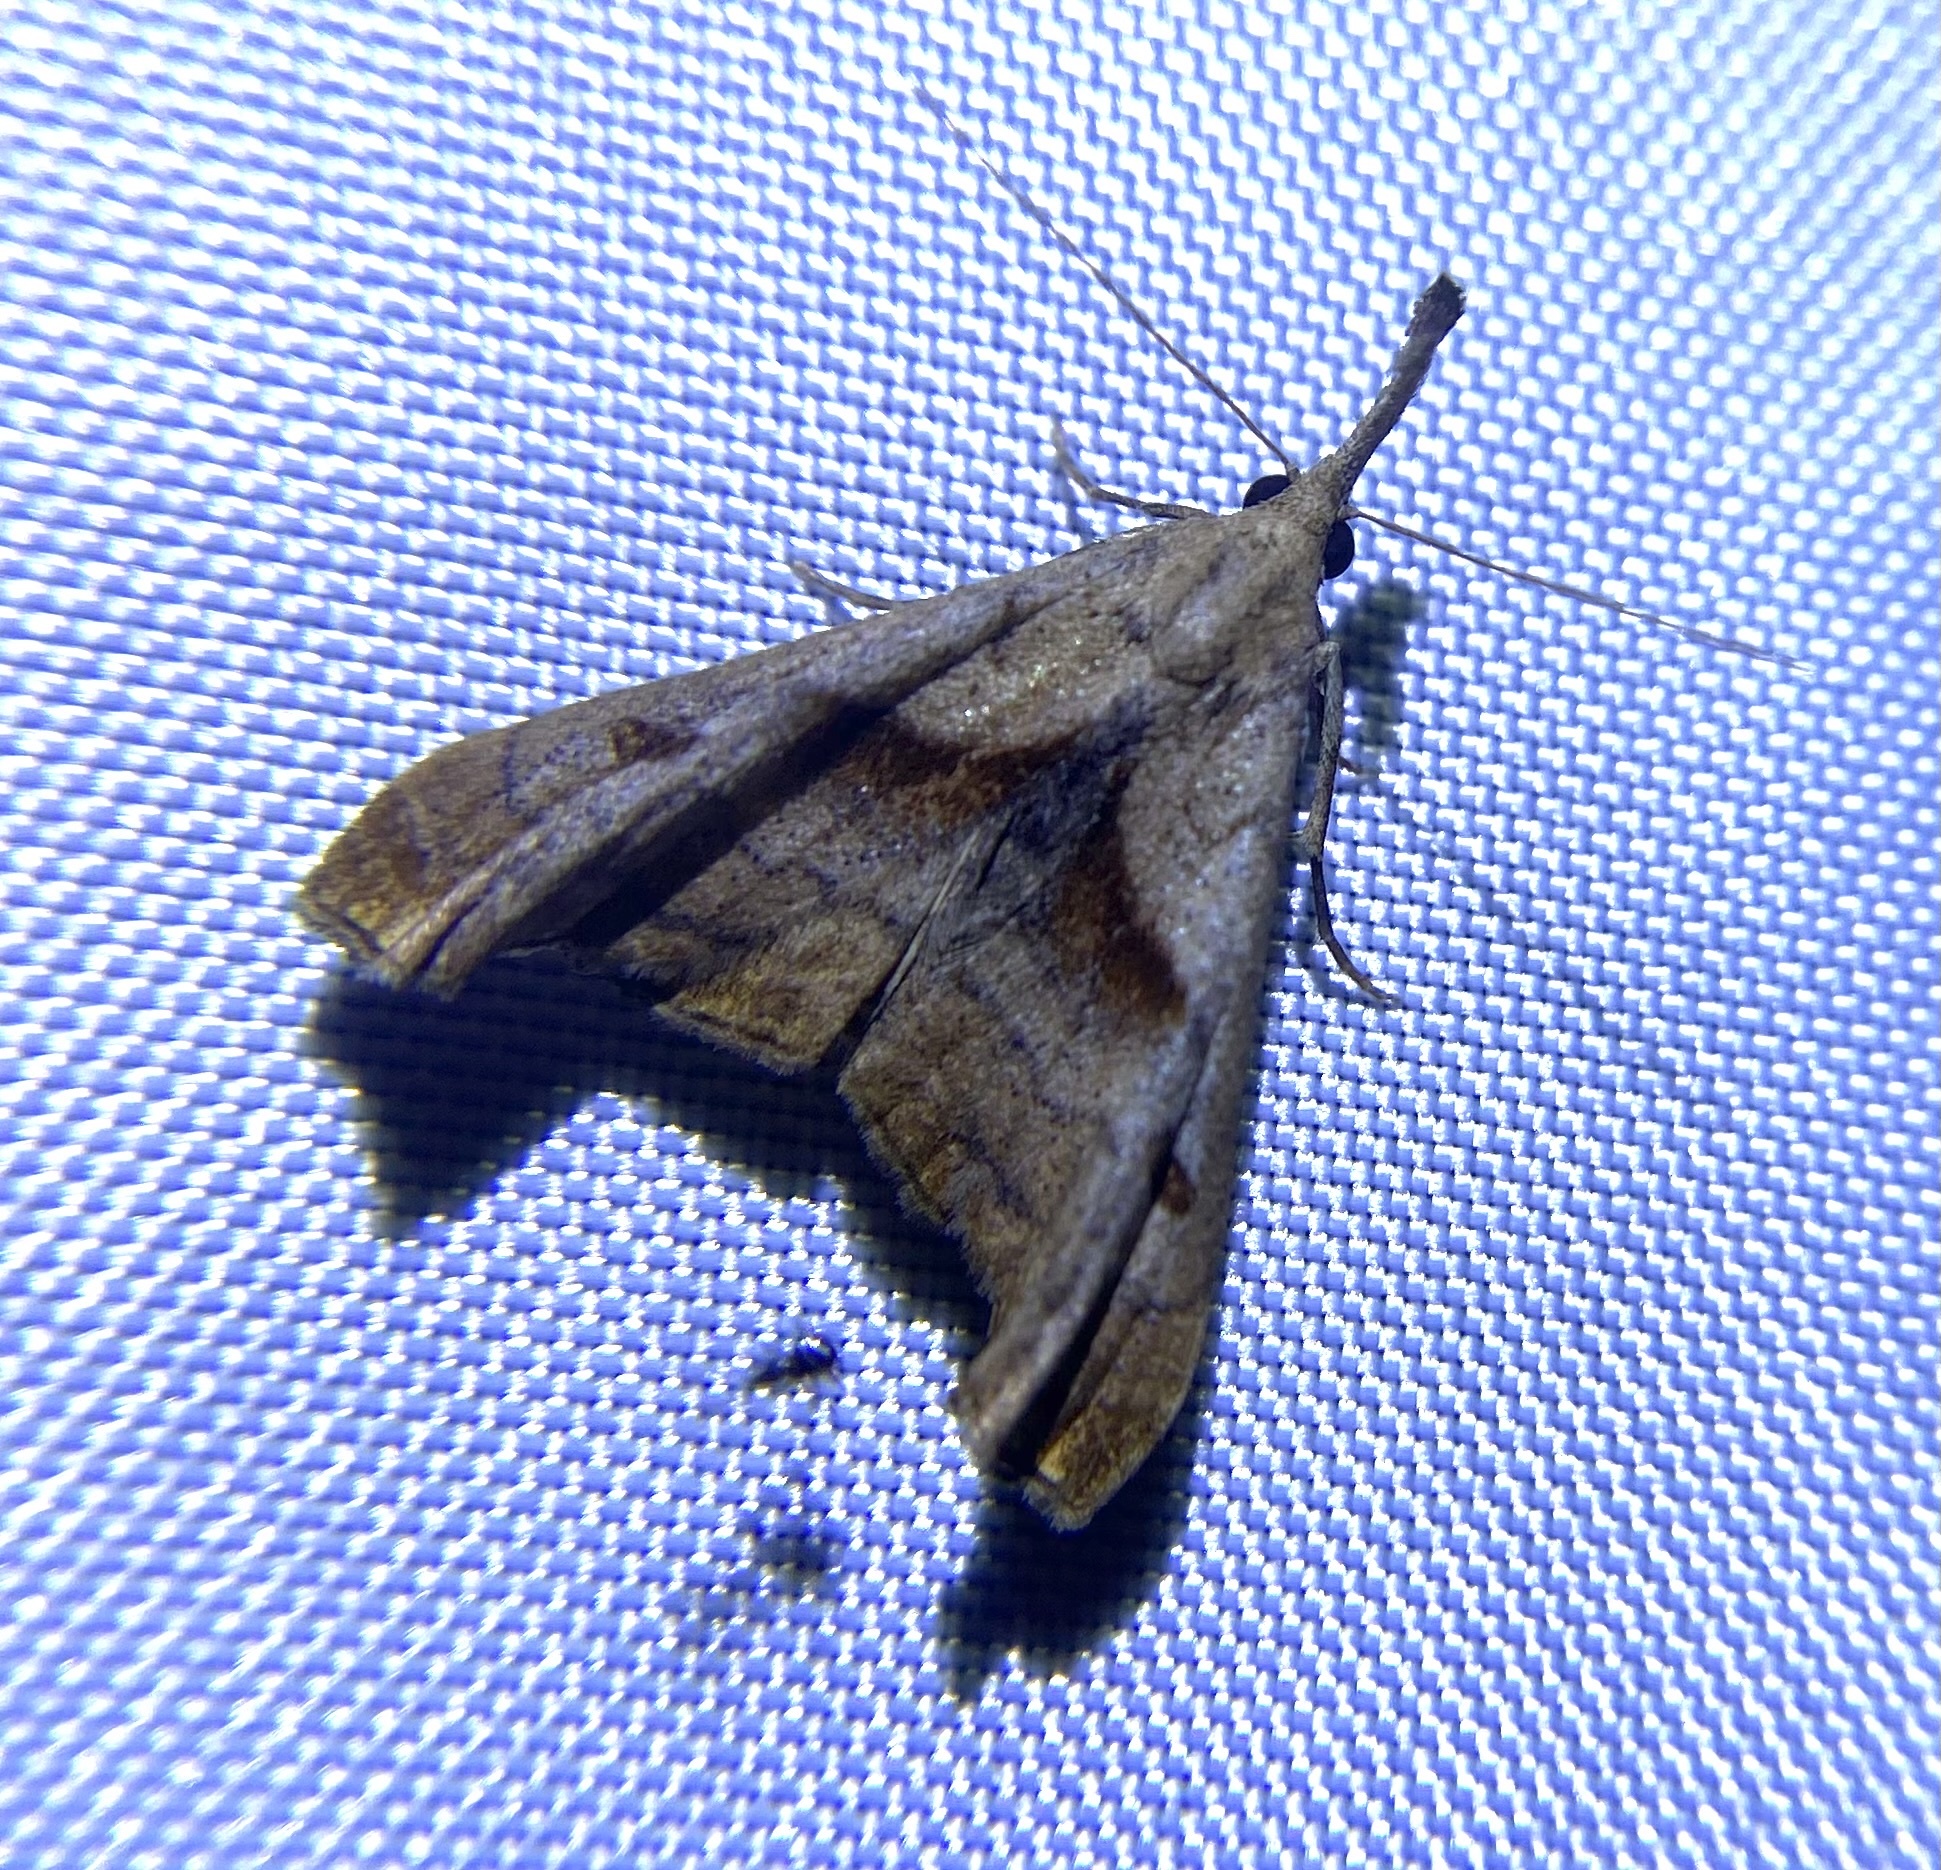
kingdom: Animalia
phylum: Arthropoda
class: Insecta
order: Lepidoptera
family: Erebidae
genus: Palthis
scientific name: Palthis angulalis
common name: Dark-spotted palthis moth
